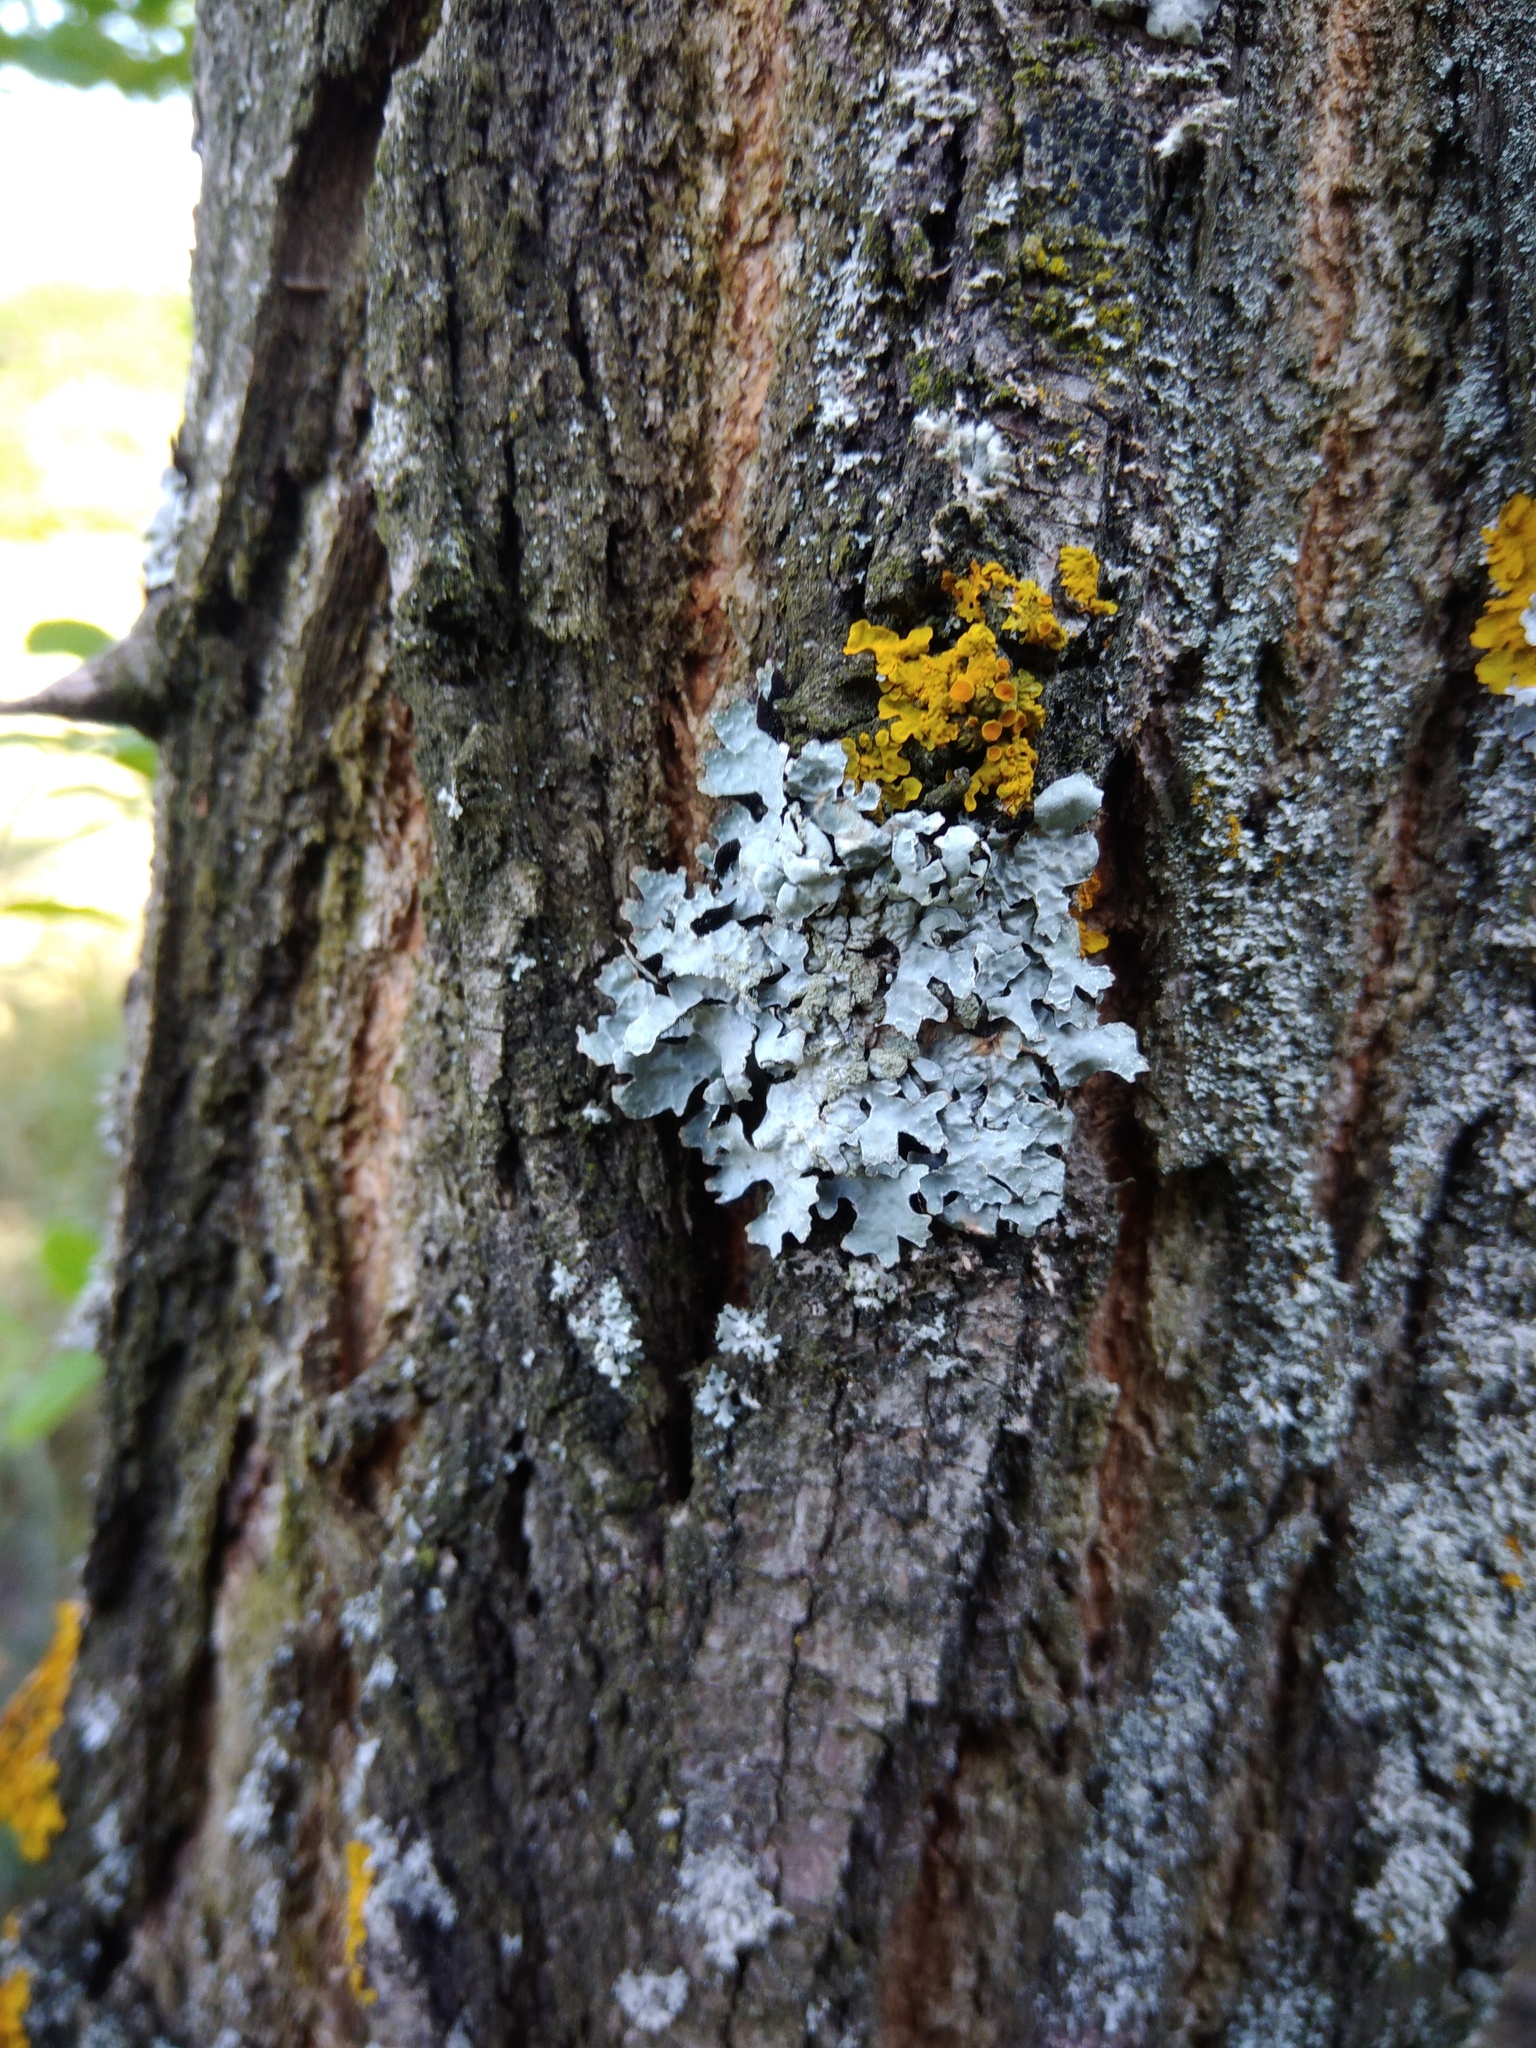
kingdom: Fungi
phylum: Ascomycota
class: Lecanoromycetes
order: Lecanorales
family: Parmeliaceae
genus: Parmelia
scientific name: Parmelia sulcata
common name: Netted shield lichen
